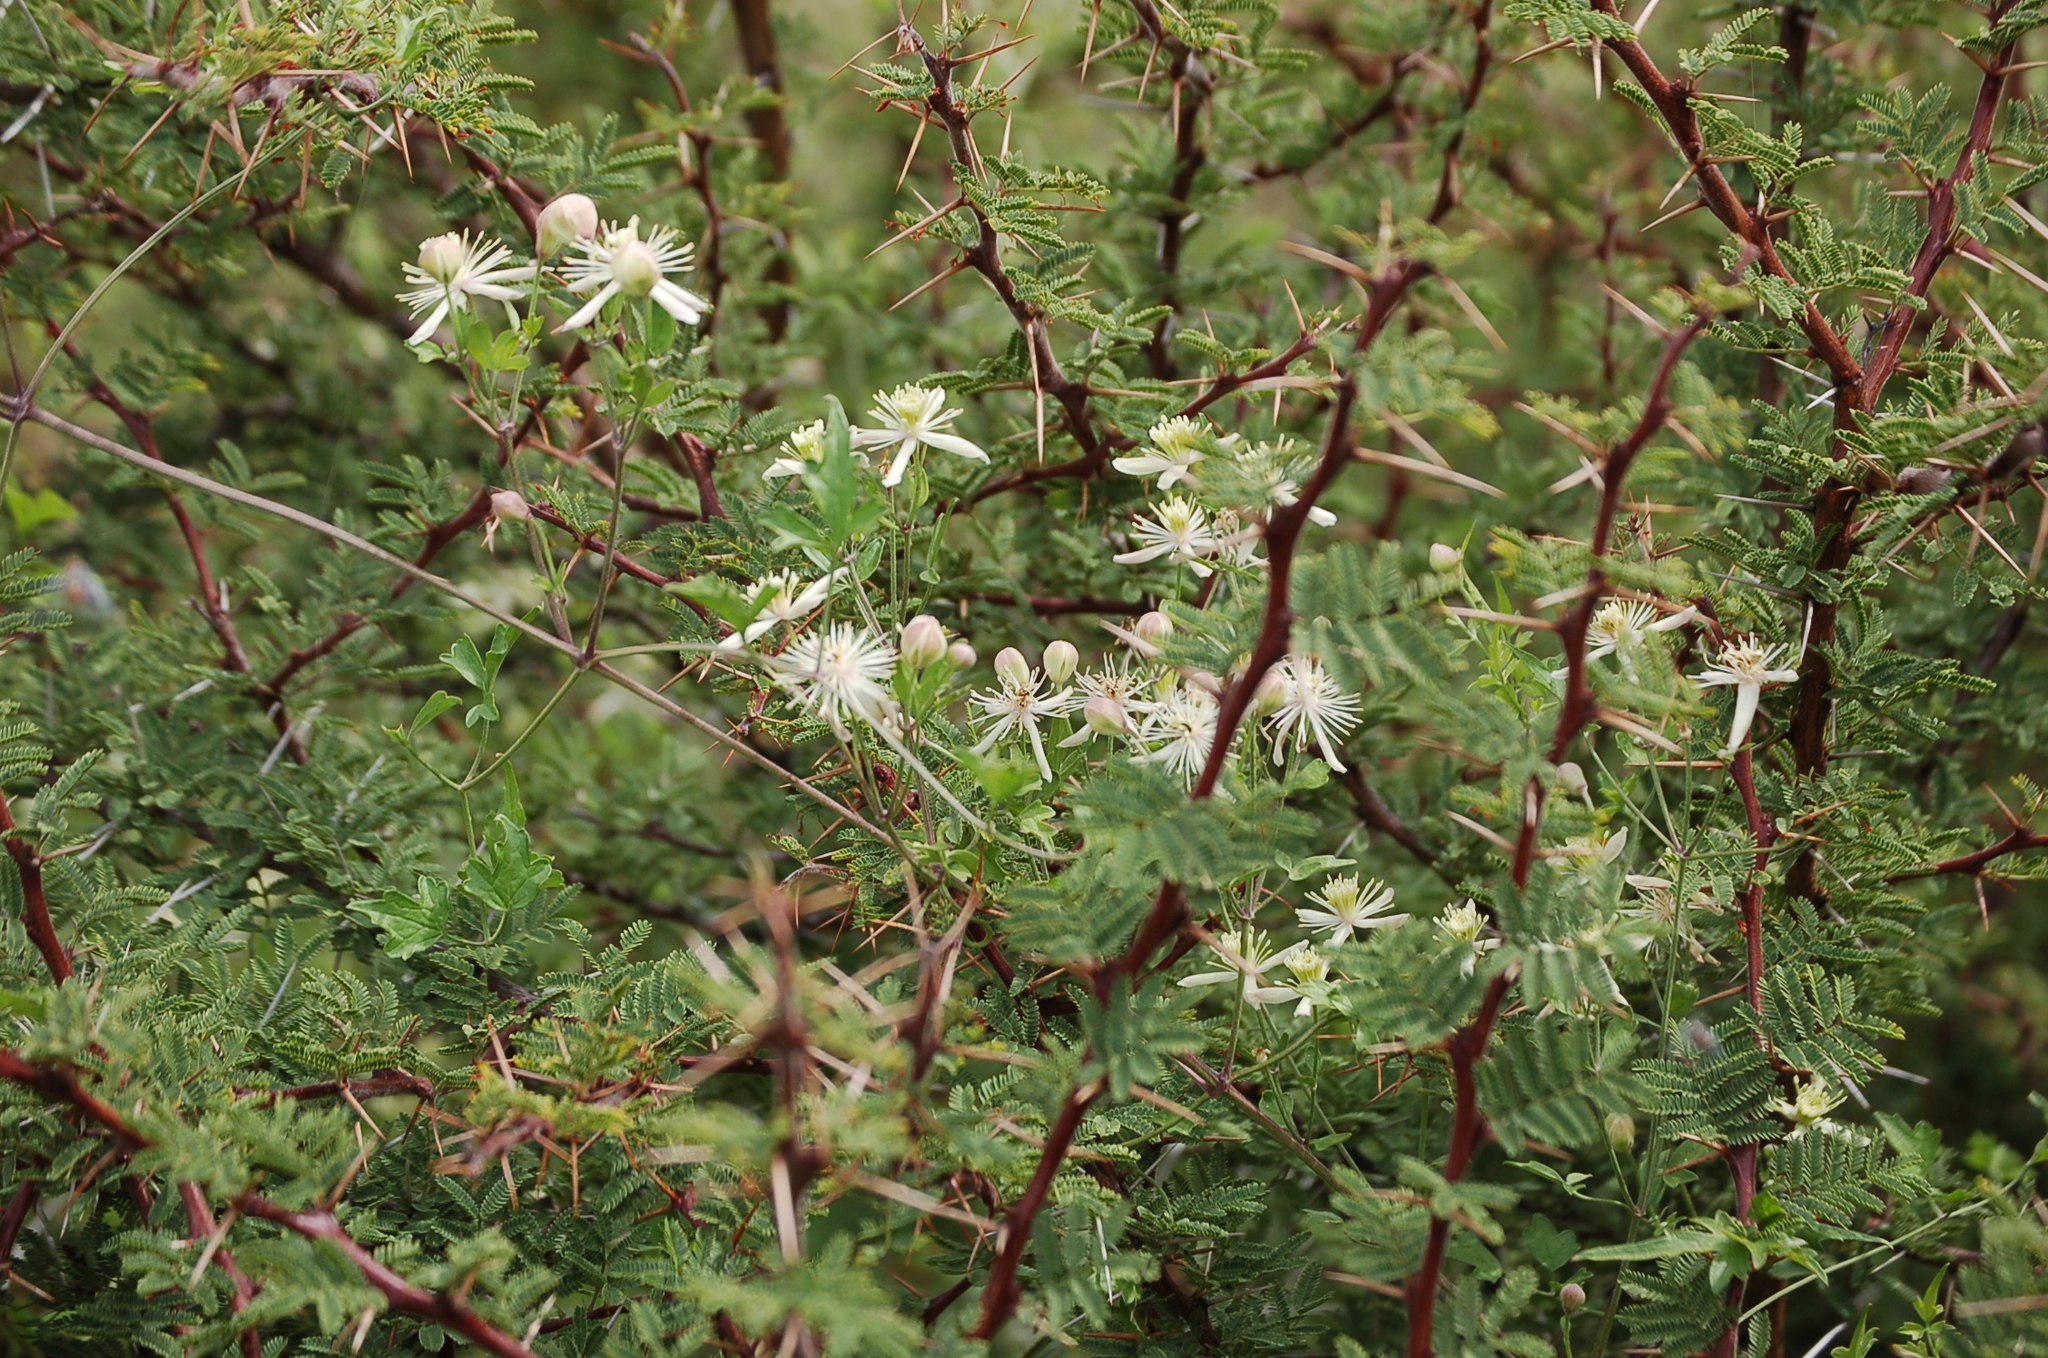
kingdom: Plantae
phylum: Tracheophyta
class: Magnoliopsida
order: Ranunculales
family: Ranunculaceae
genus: Clematis
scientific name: Clematis dioica
